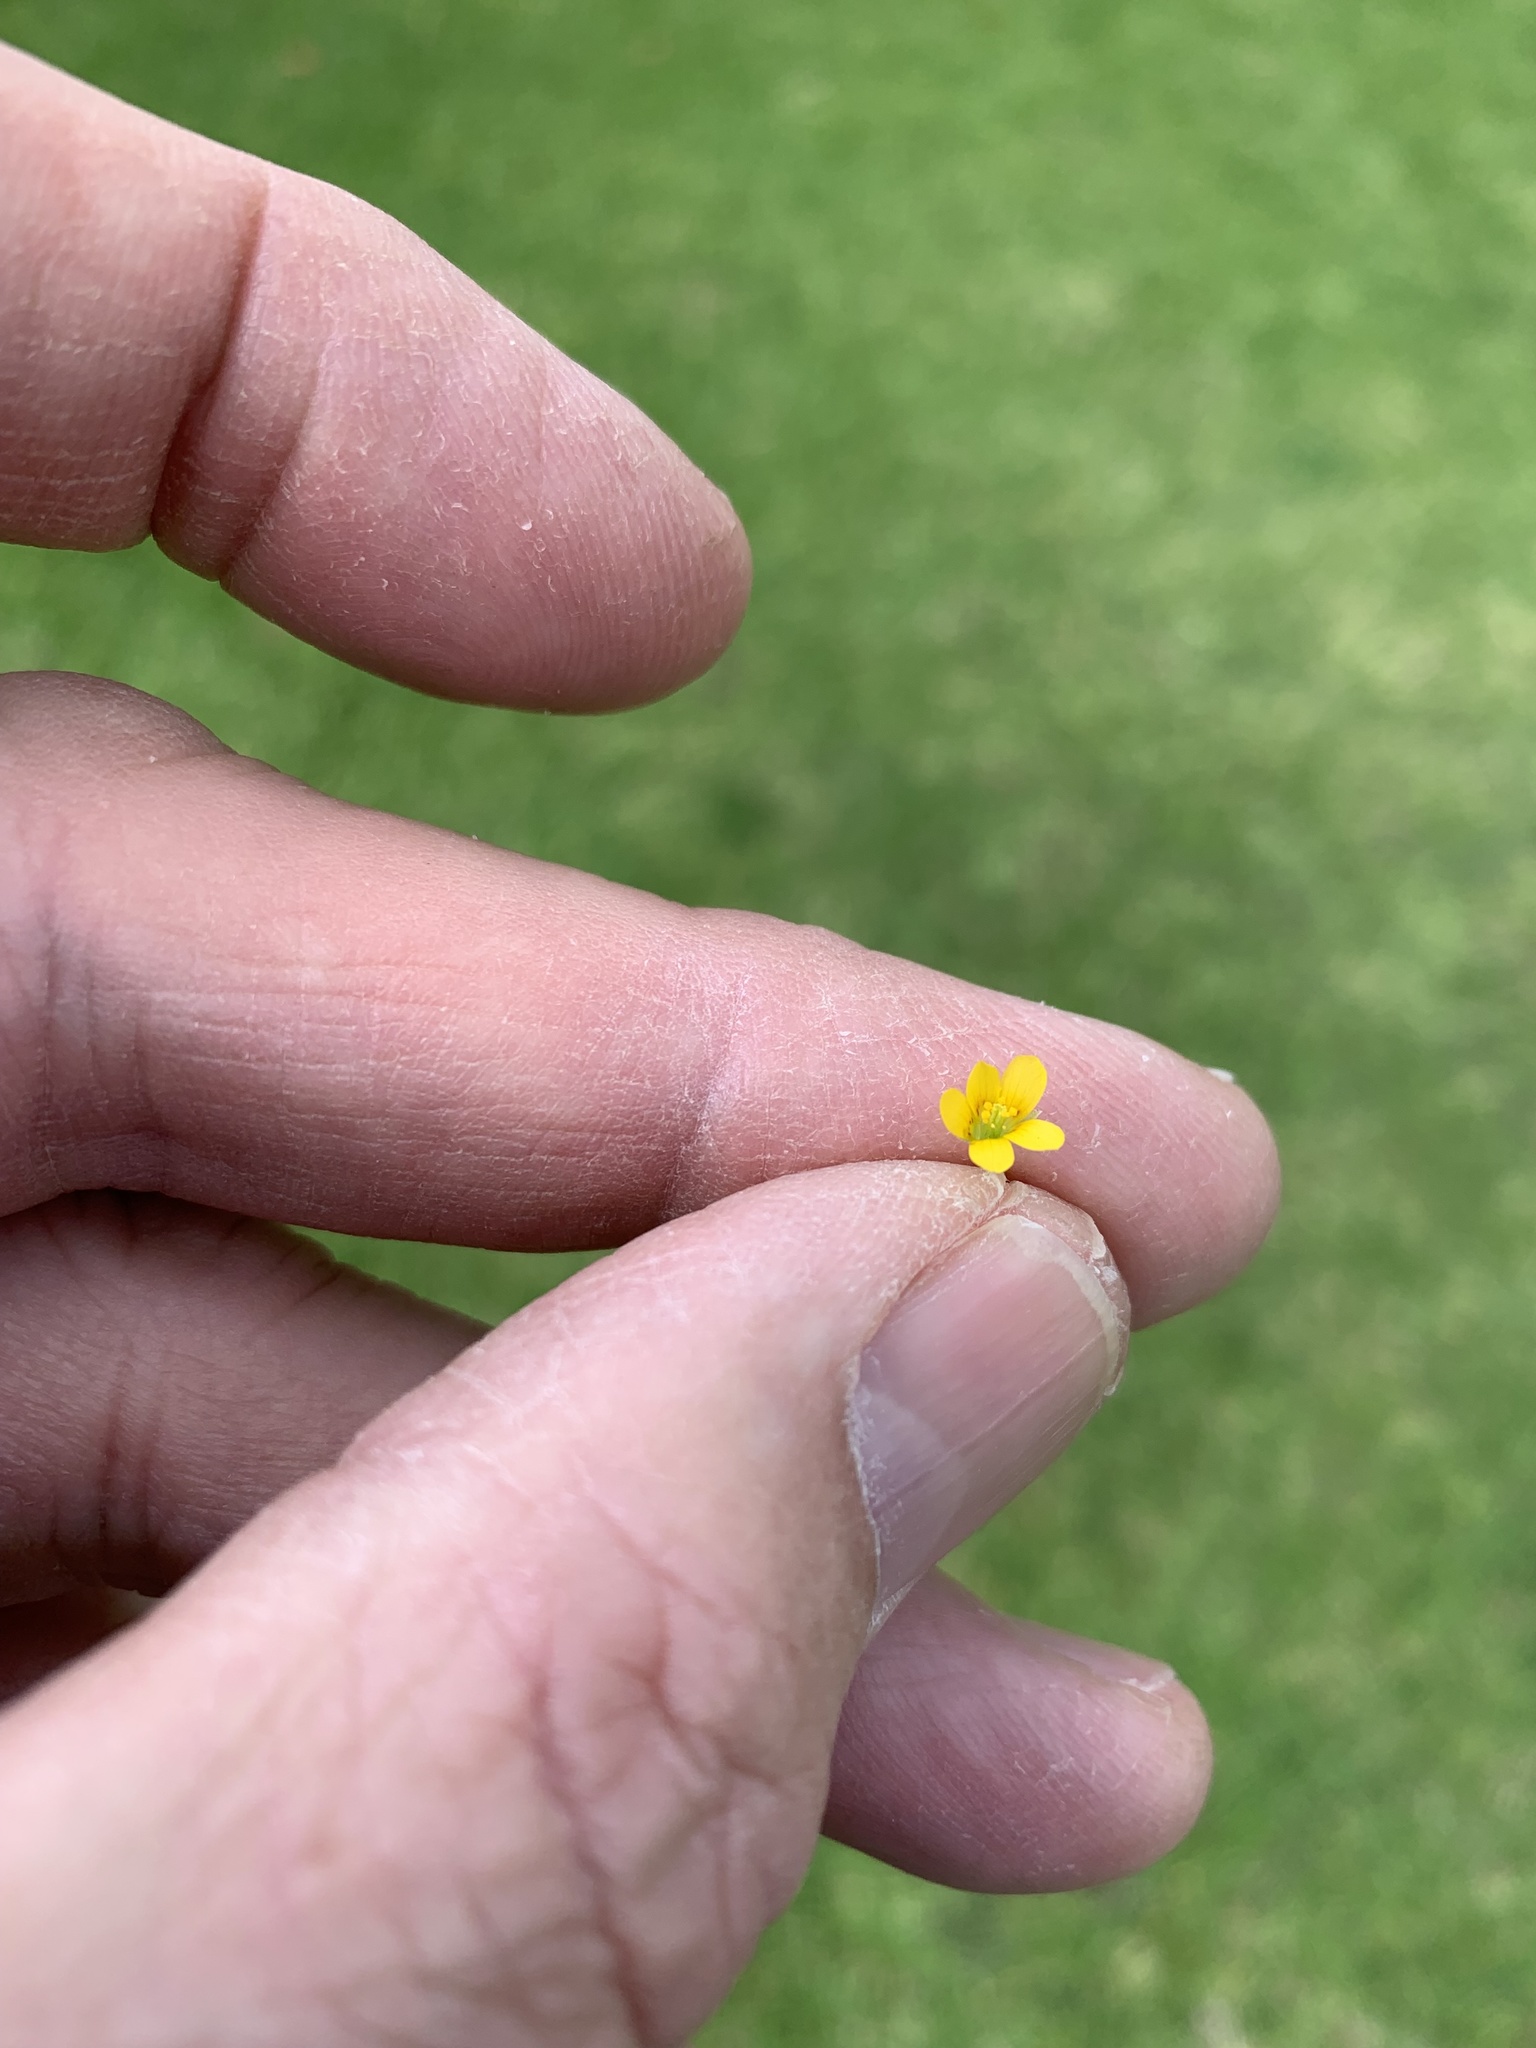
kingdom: Plantae
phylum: Tracheophyta
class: Magnoliopsida
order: Oxalidales
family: Oxalidaceae
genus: Oxalis
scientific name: Oxalis corniculata
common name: Procumbent yellow-sorrel
